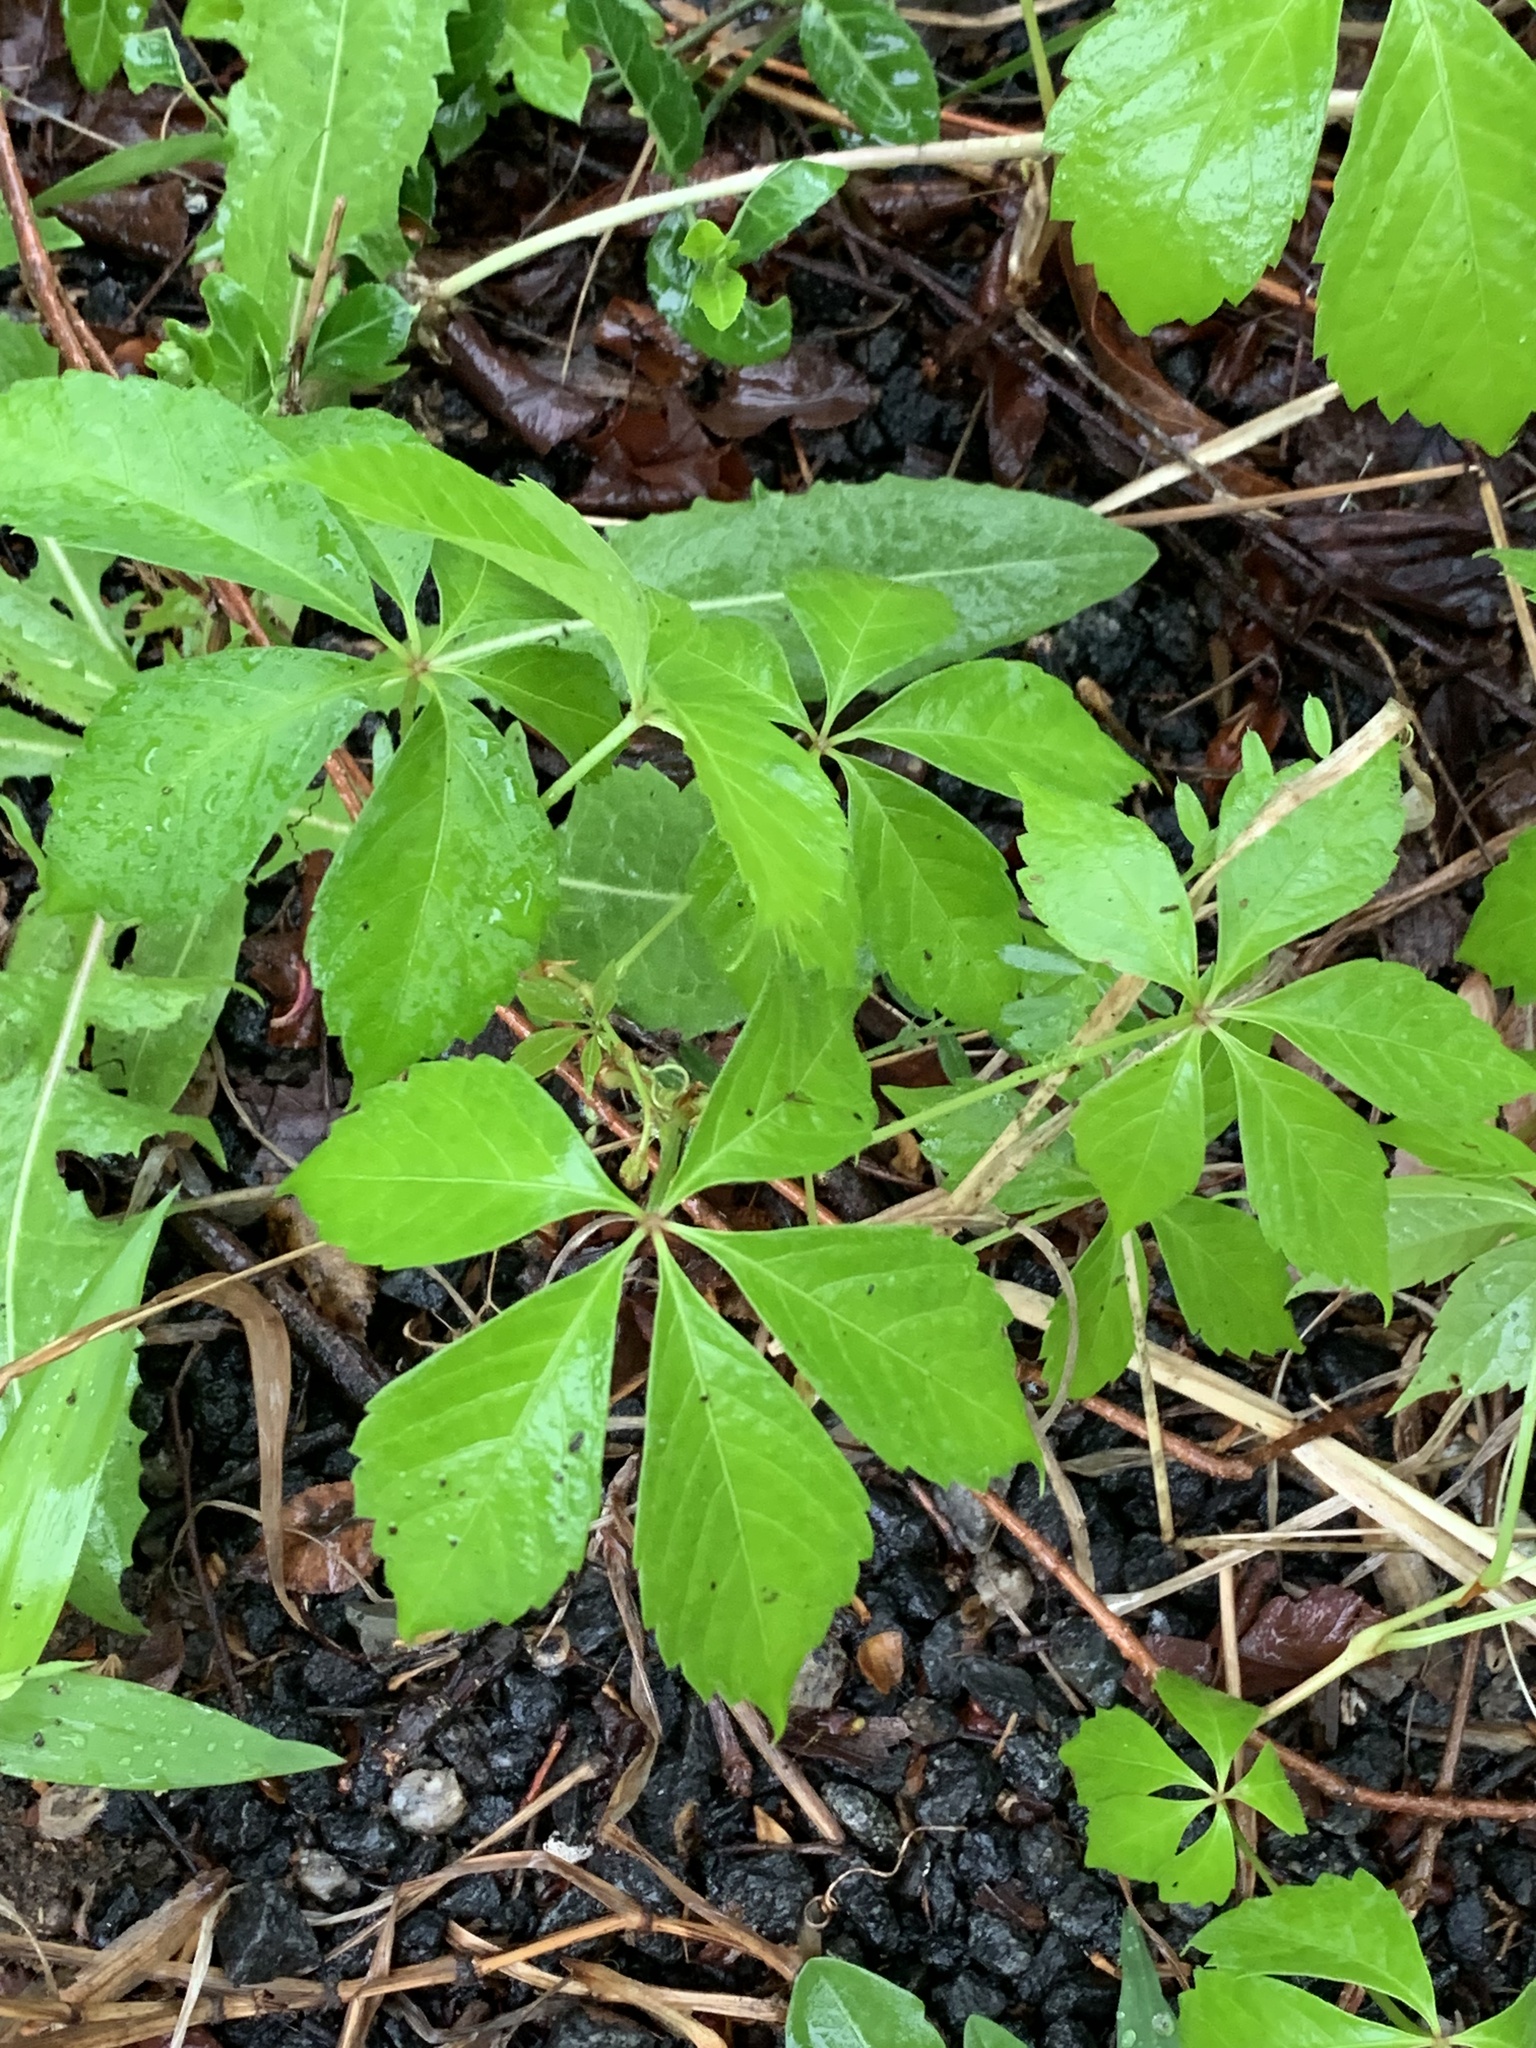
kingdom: Plantae
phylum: Tracheophyta
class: Magnoliopsida
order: Vitales
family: Vitaceae
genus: Parthenocissus
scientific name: Parthenocissus quinquefolia
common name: Virginia-creeper
